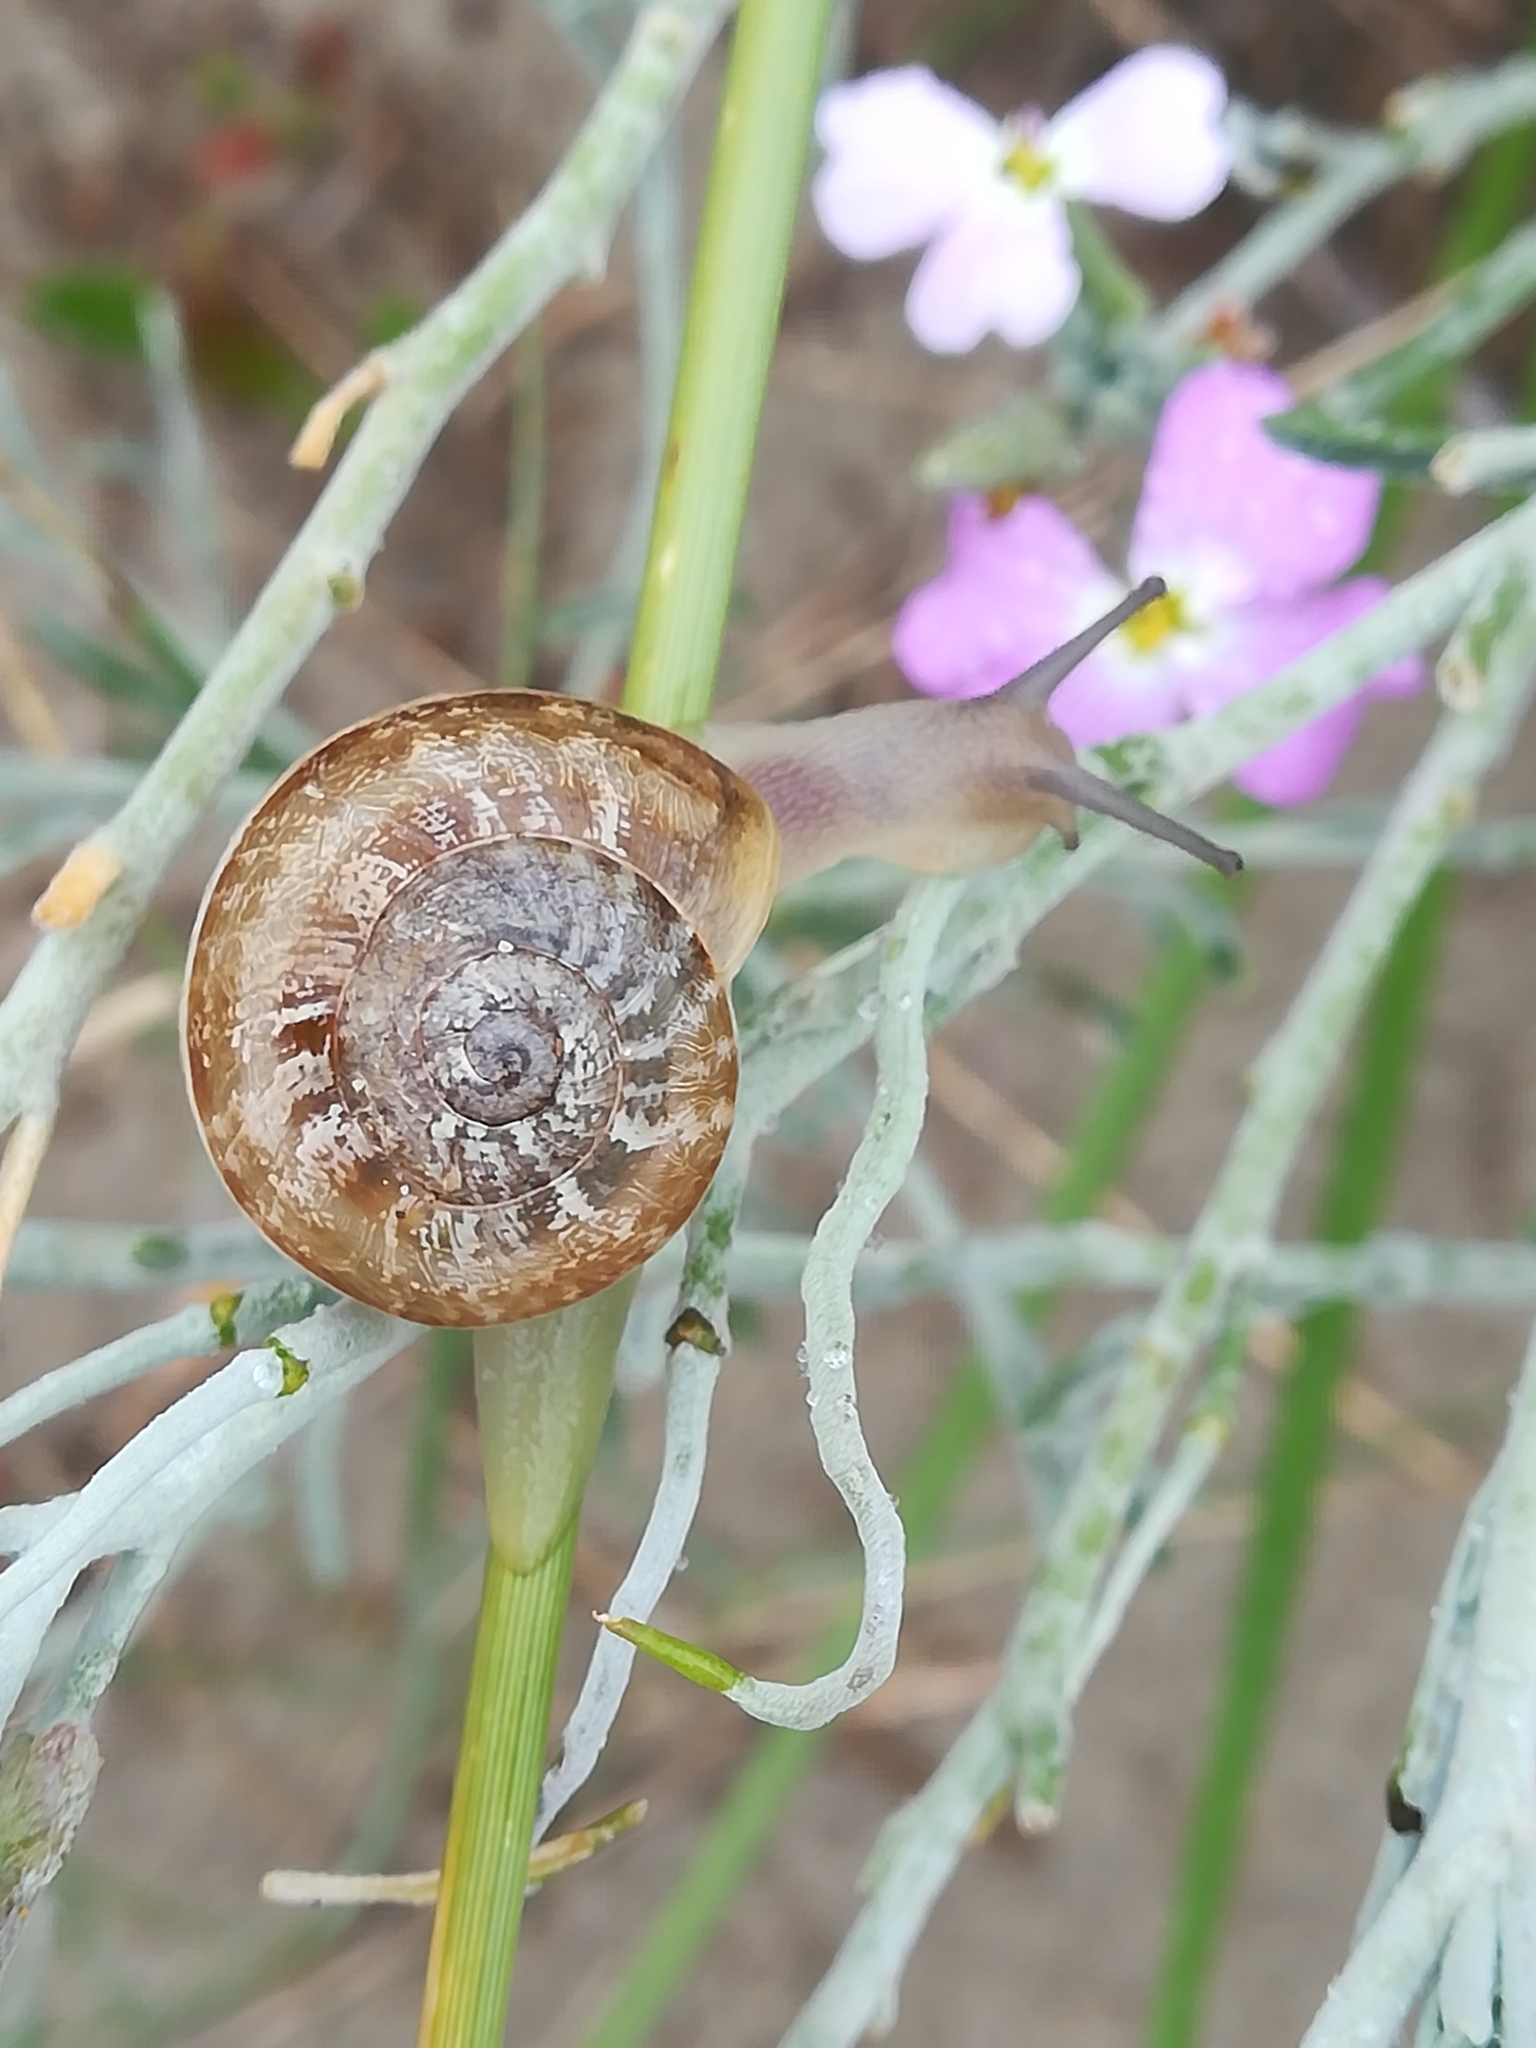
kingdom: Animalia
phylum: Mollusca
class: Gastropoda
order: Stylommatophora
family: Helicidae
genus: Eobania
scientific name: Eobania vermiculata
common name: Chocolateband snail
